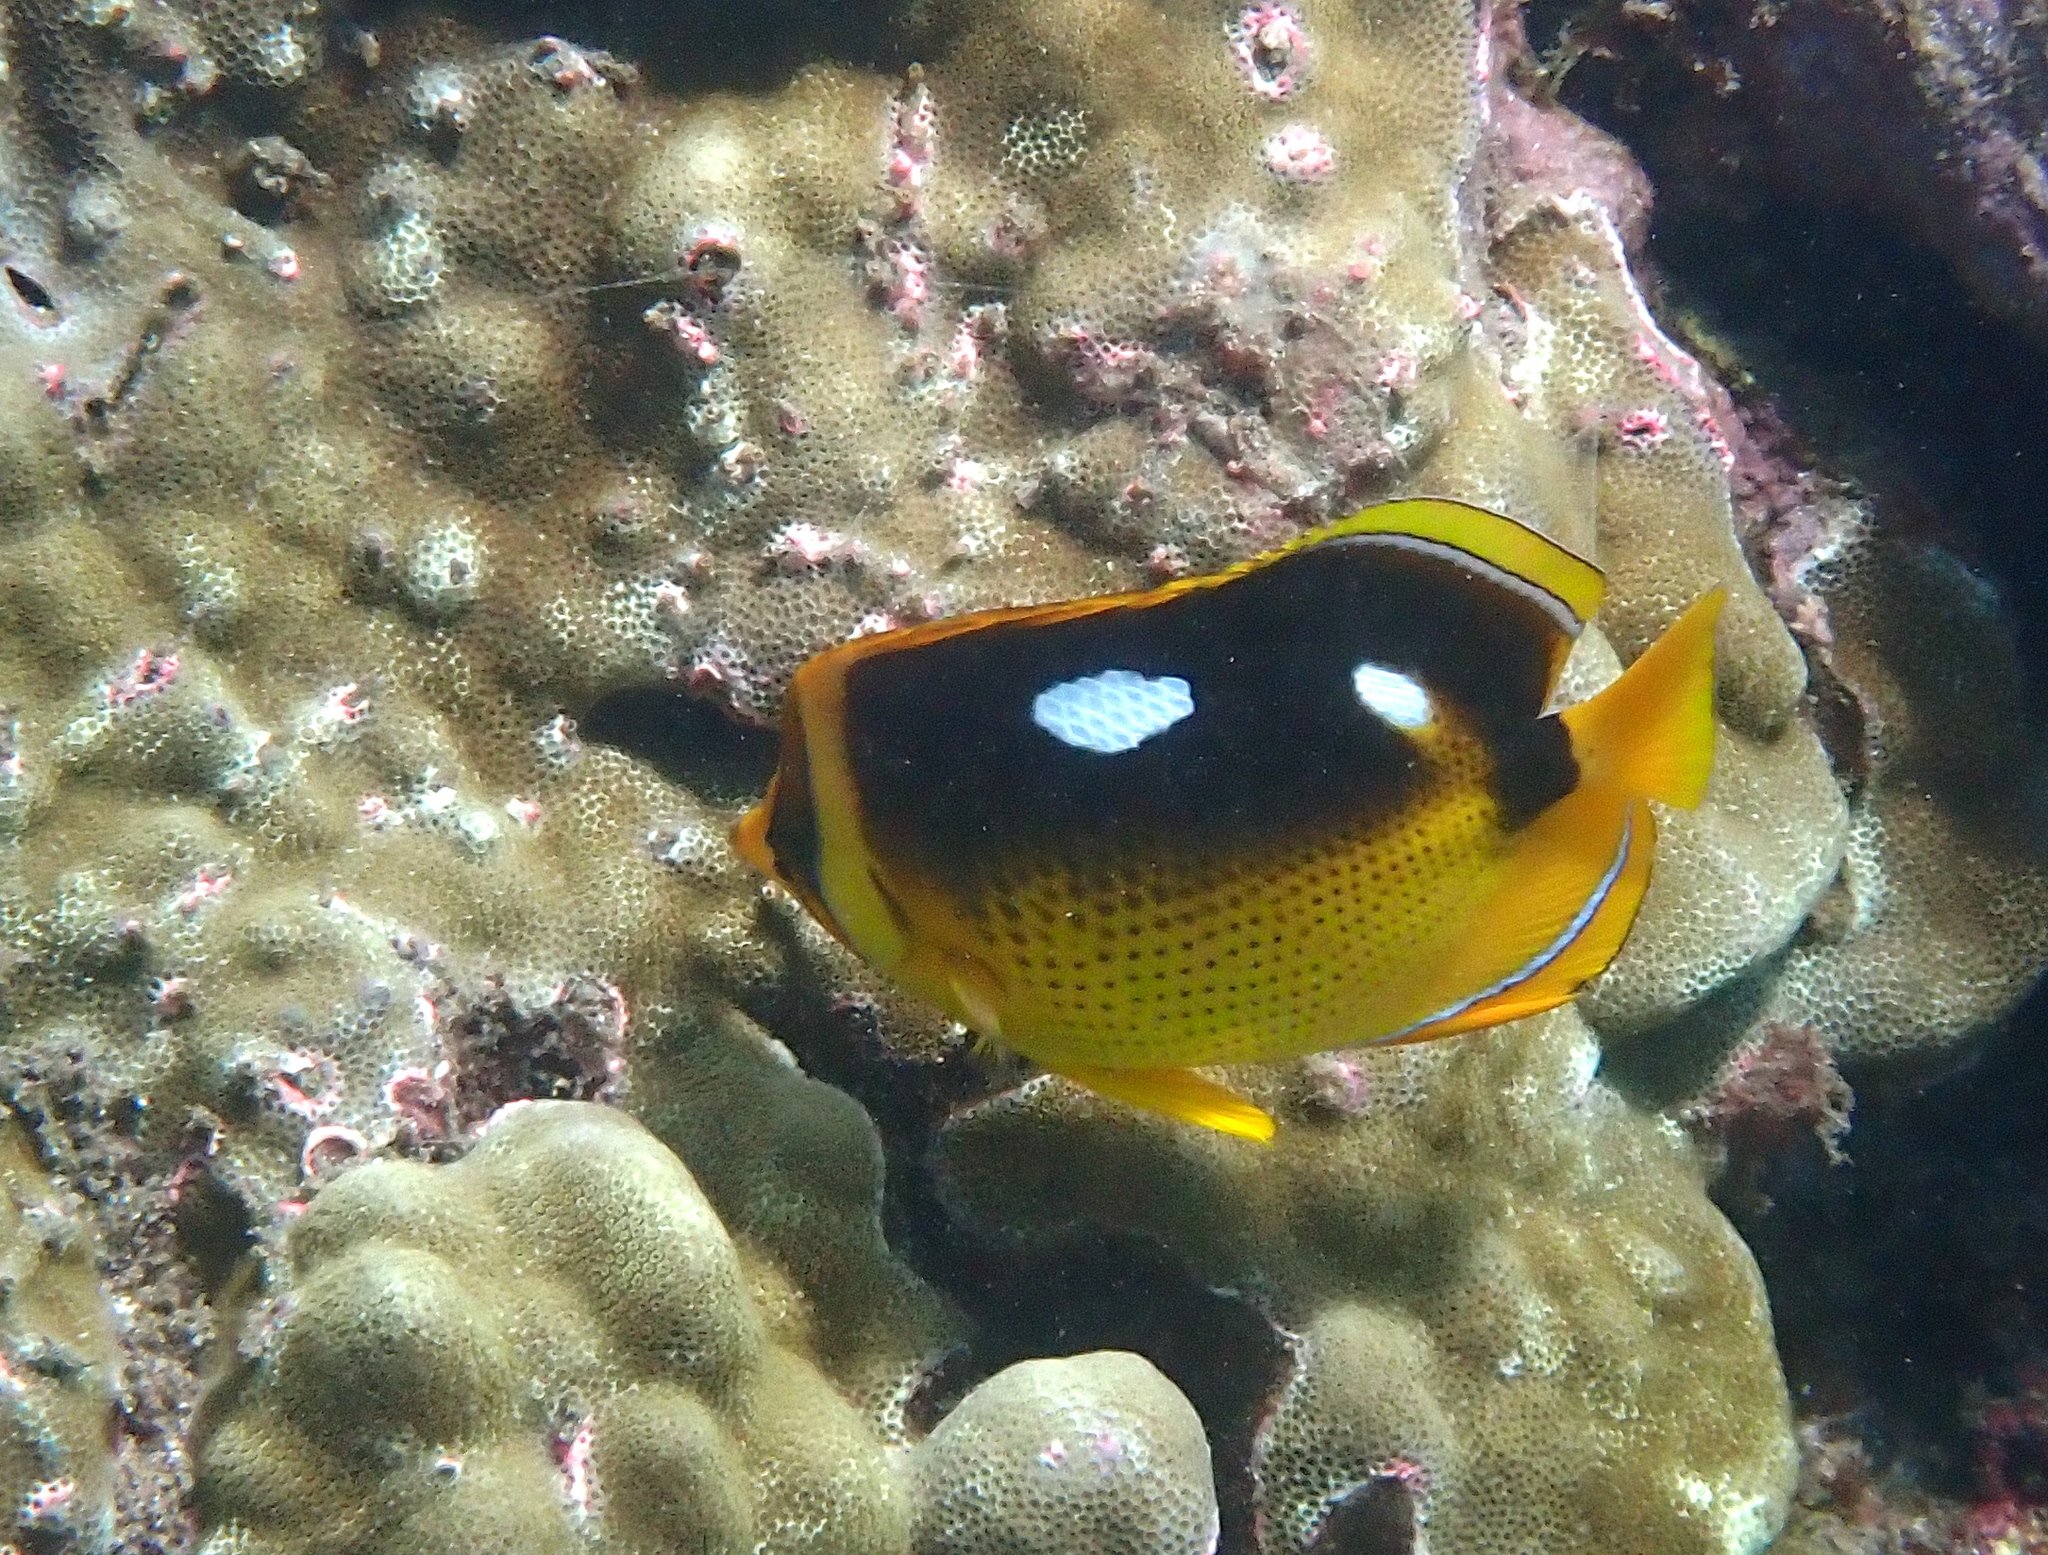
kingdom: Animalia
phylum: Chordata
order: Perciformes
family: Chaetodontidae
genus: Chaetodon
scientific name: Chaetodon quadrimaculatus
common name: Fourspot butterflyfish
